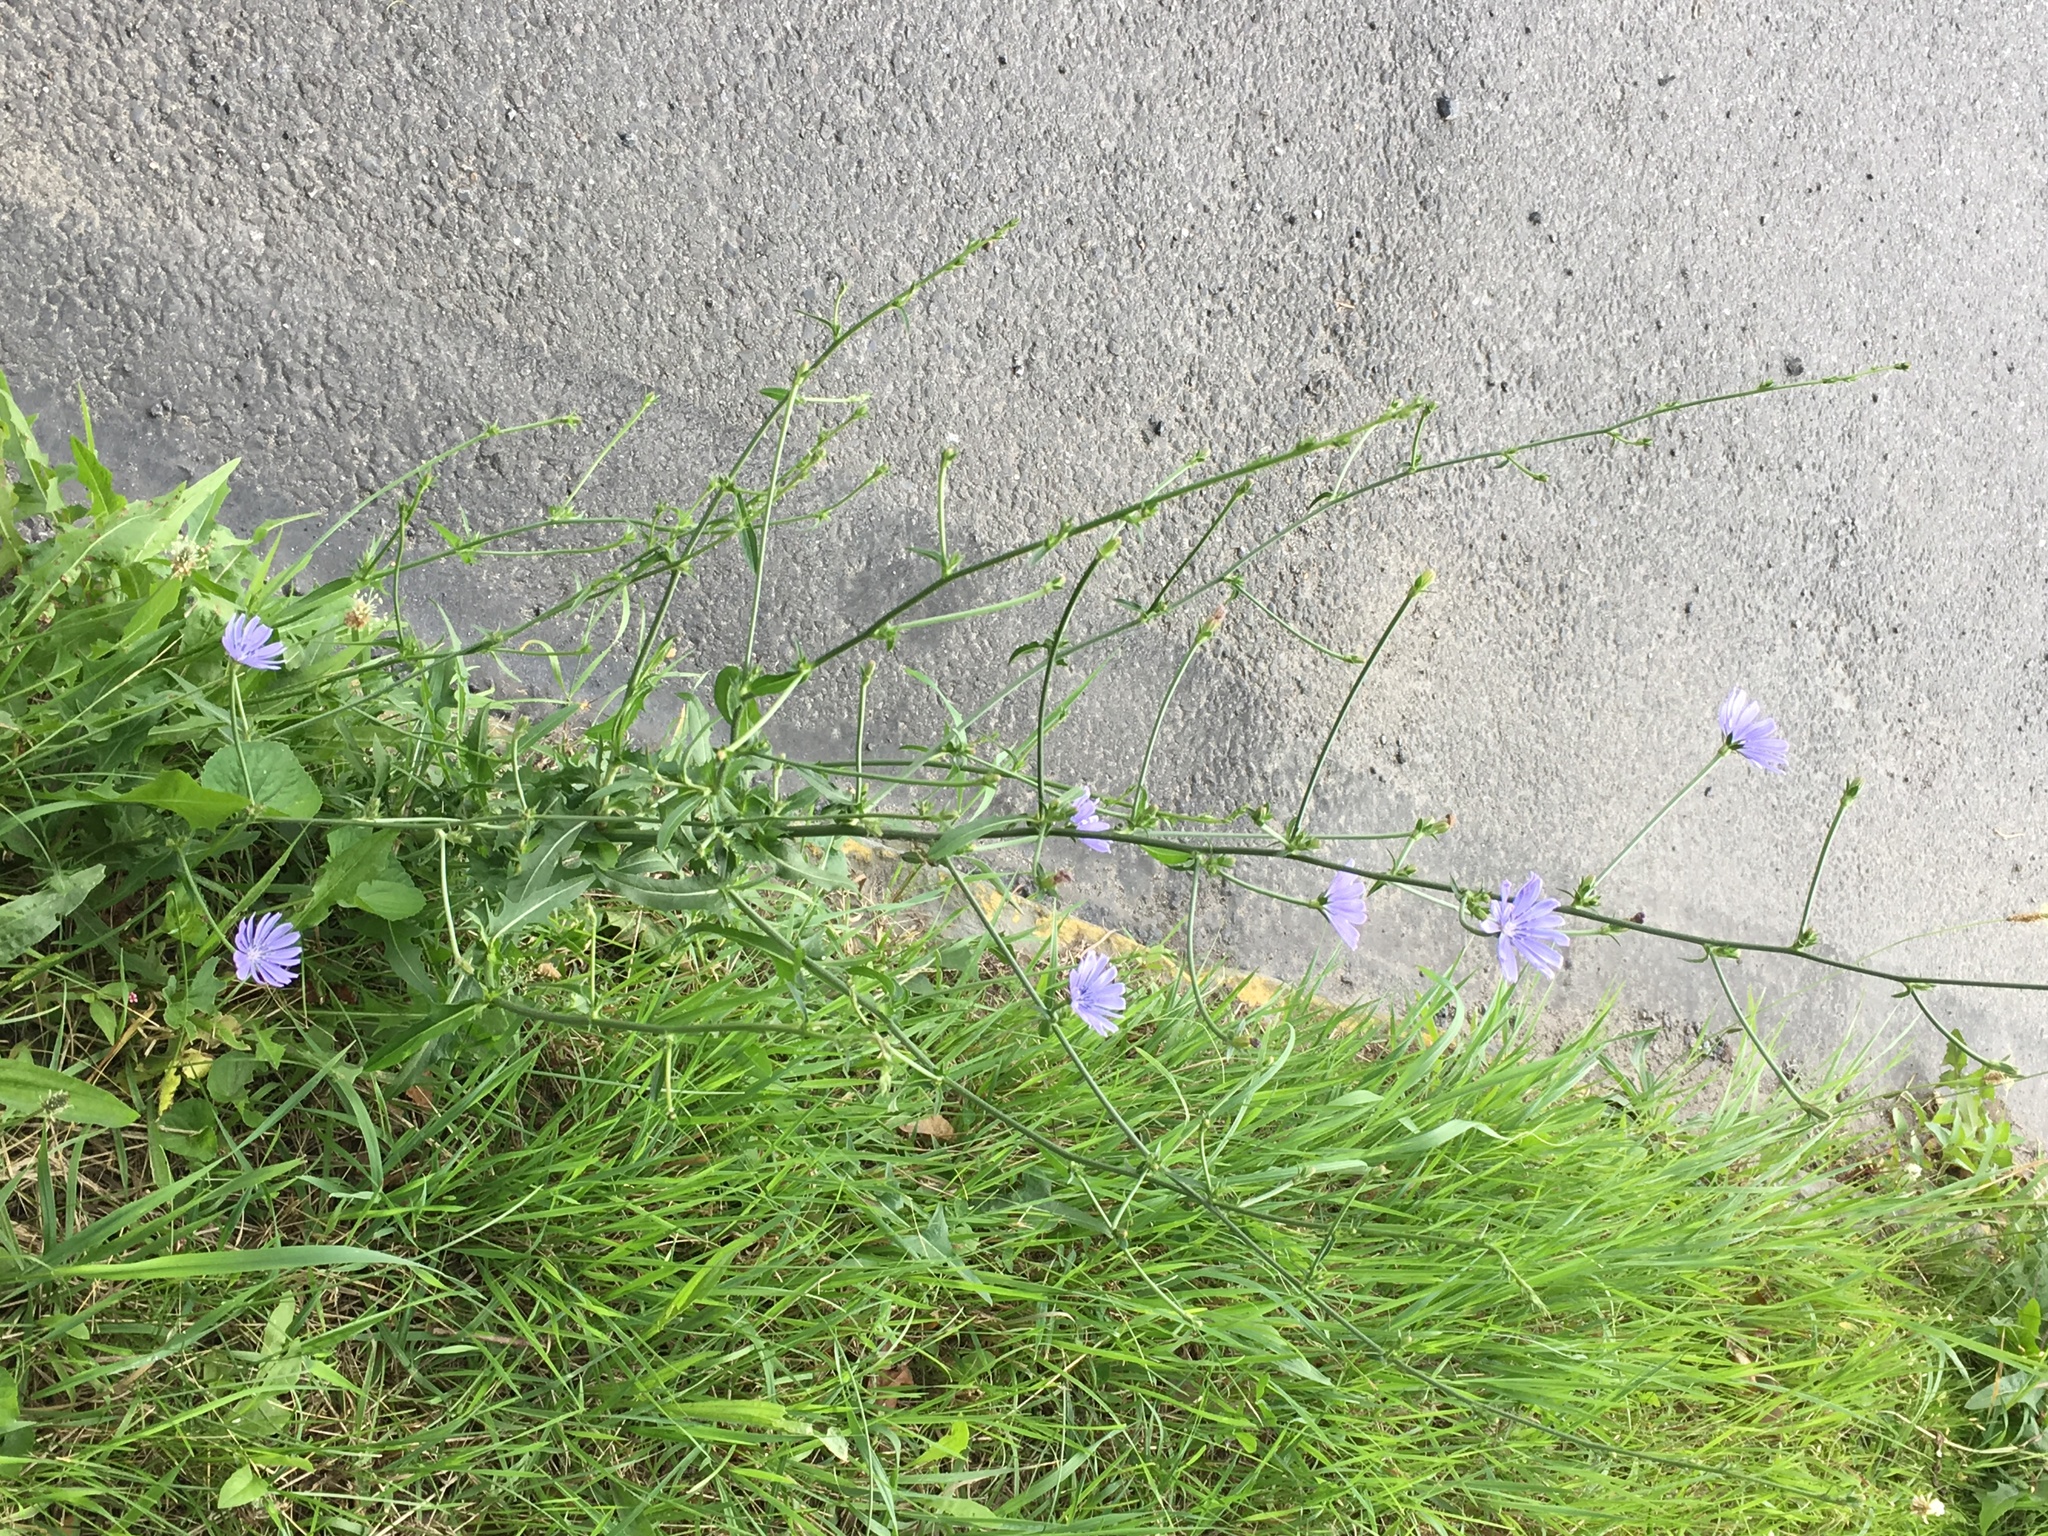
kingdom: Plantae
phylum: Tracheophyta
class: Magnoliopsida
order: Asterales
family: Asteraceae
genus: Cichorium
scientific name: Cichorium intybus
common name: Chicory
